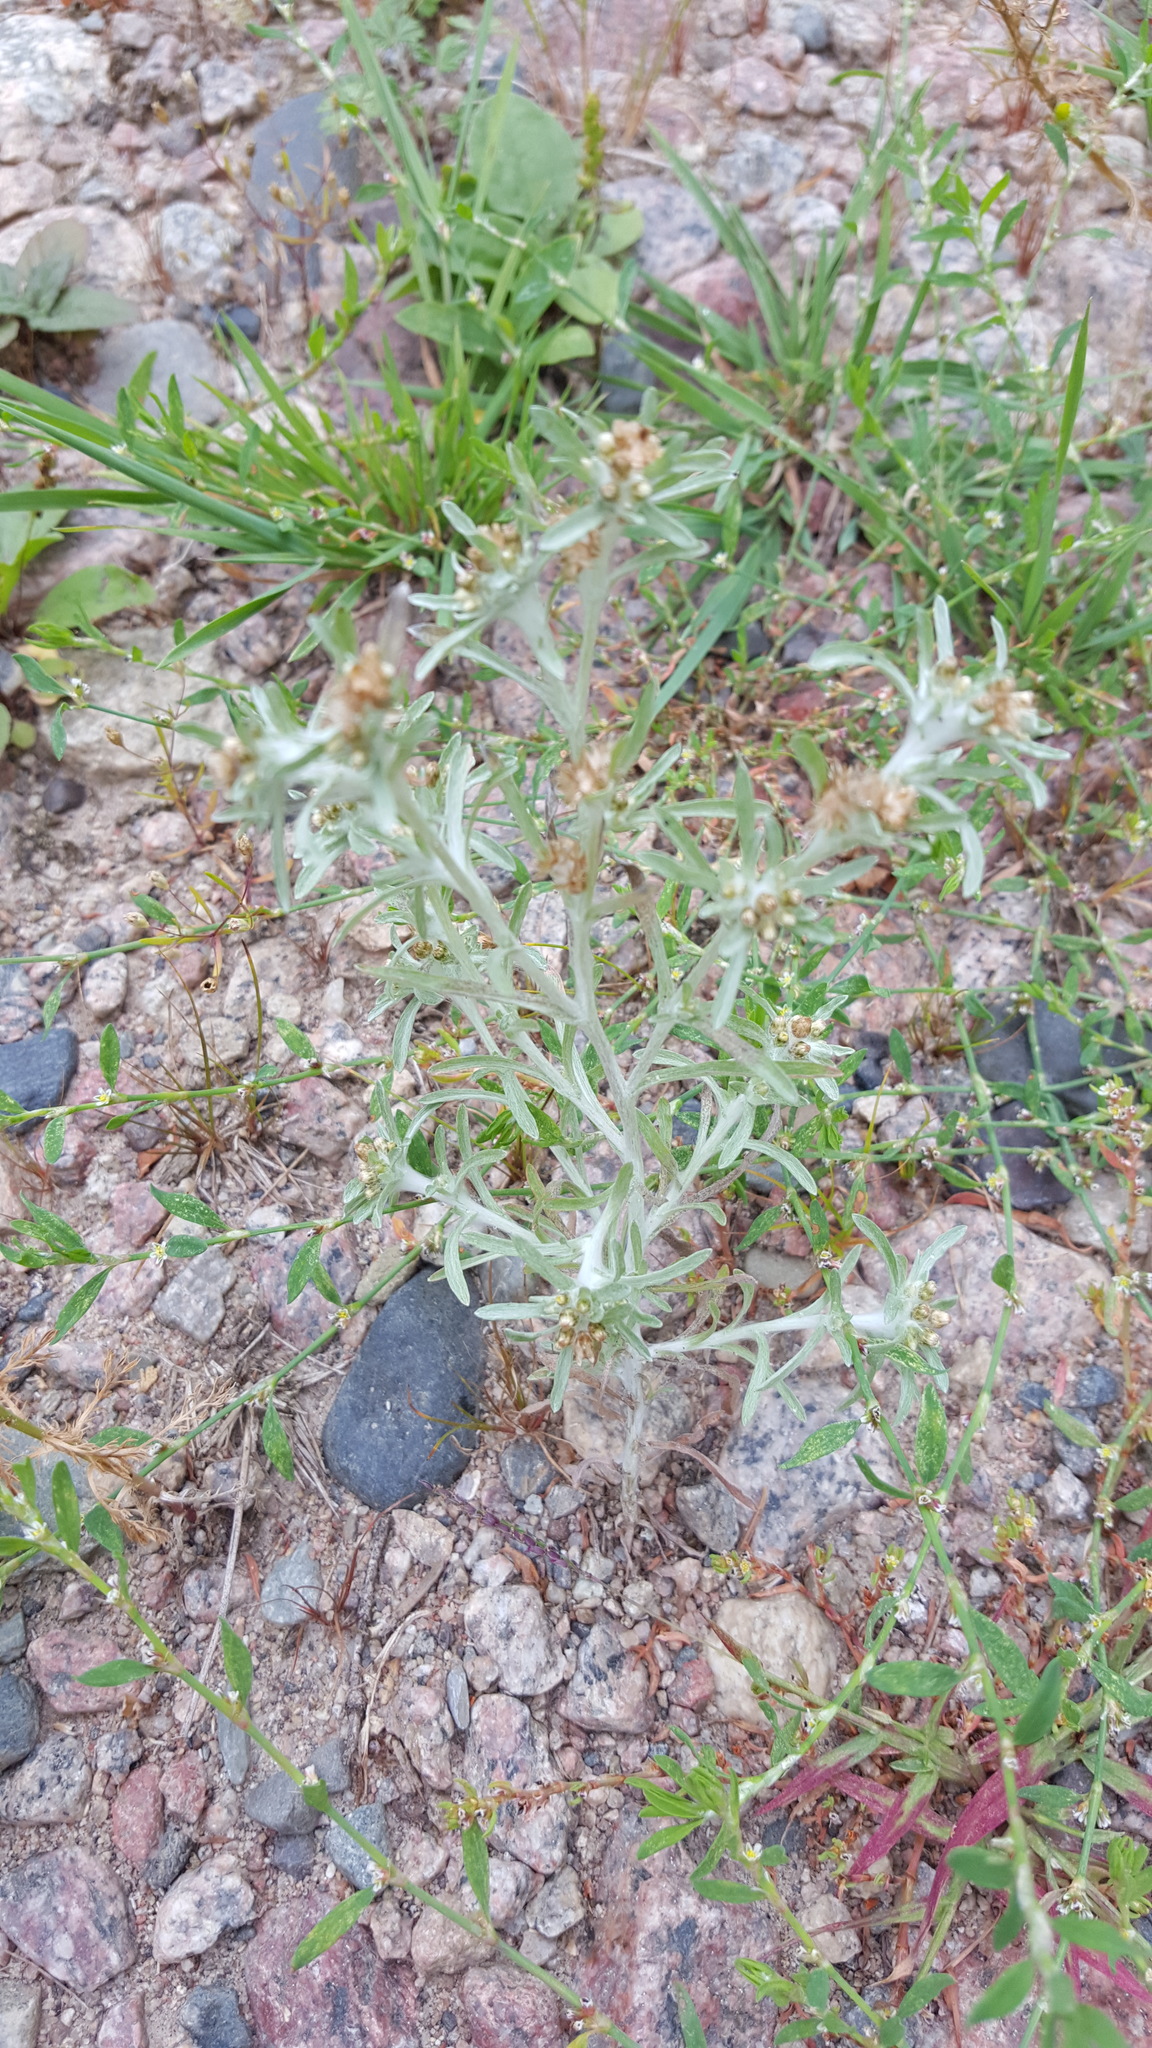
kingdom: Plantae
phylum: Tracheophyta
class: Magnoliopsida
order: Asterales
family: Asteraceae
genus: Gnaphalium
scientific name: Gnaphalium uliginosum
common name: Marsh cudweed
